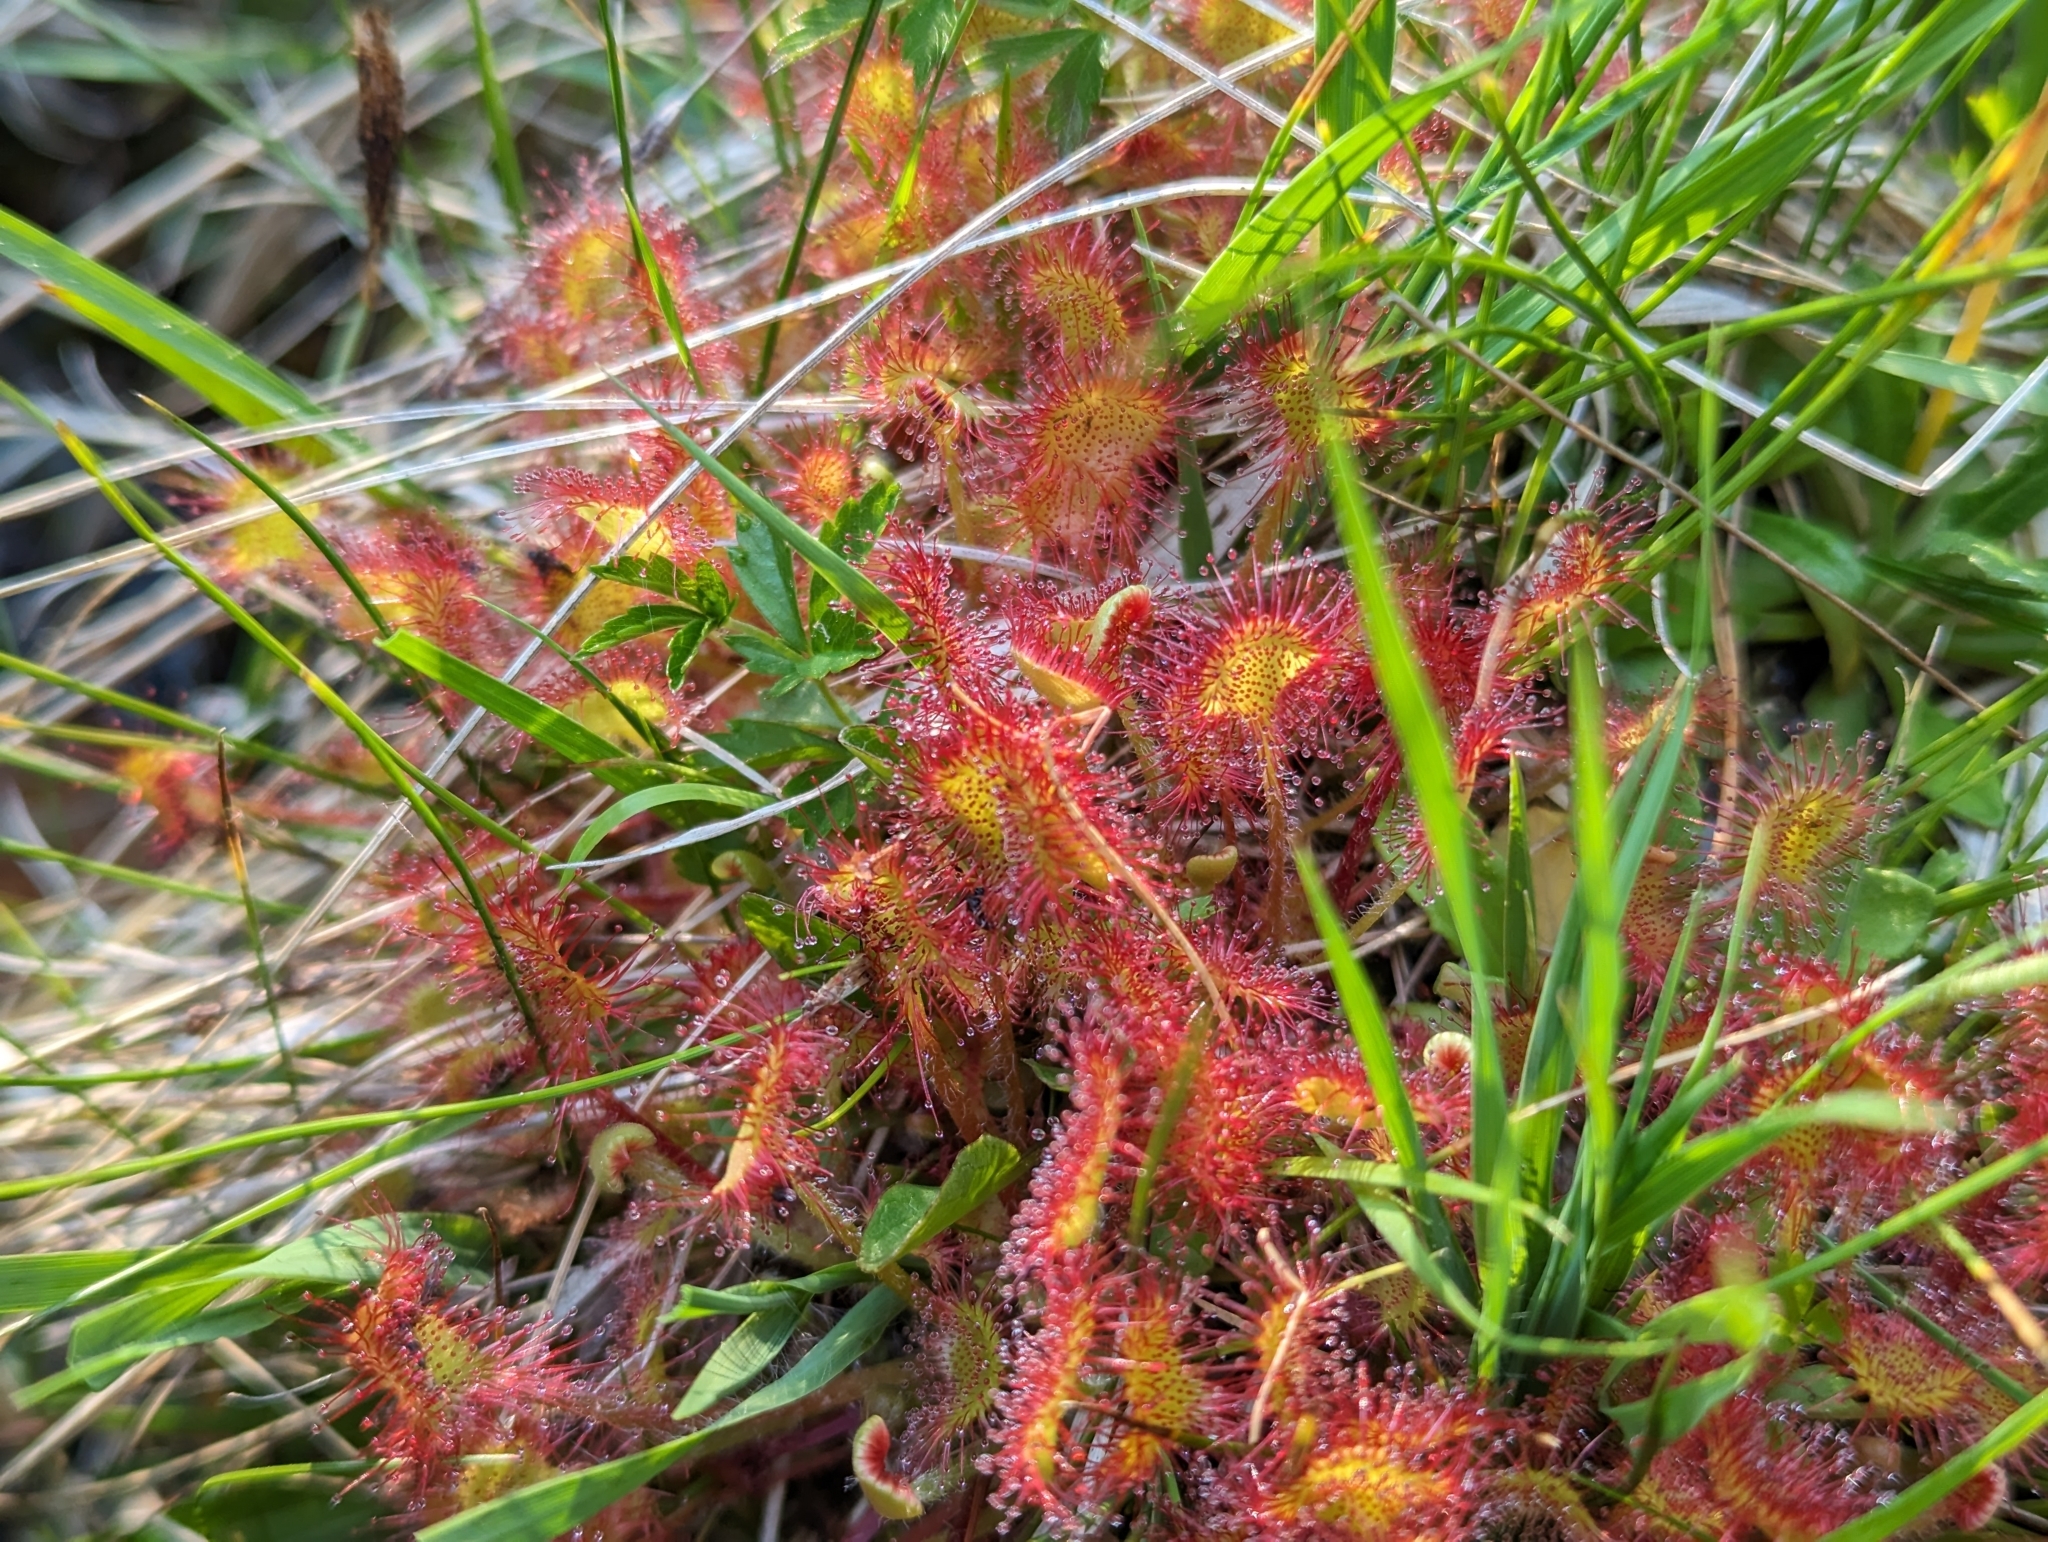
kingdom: Plantae
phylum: Tracheophyta
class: Magnoliopsida
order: Caryophyllales
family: Droseraceae
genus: Drosera
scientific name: Drosera rotundifolia
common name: Round-leaved sundew
